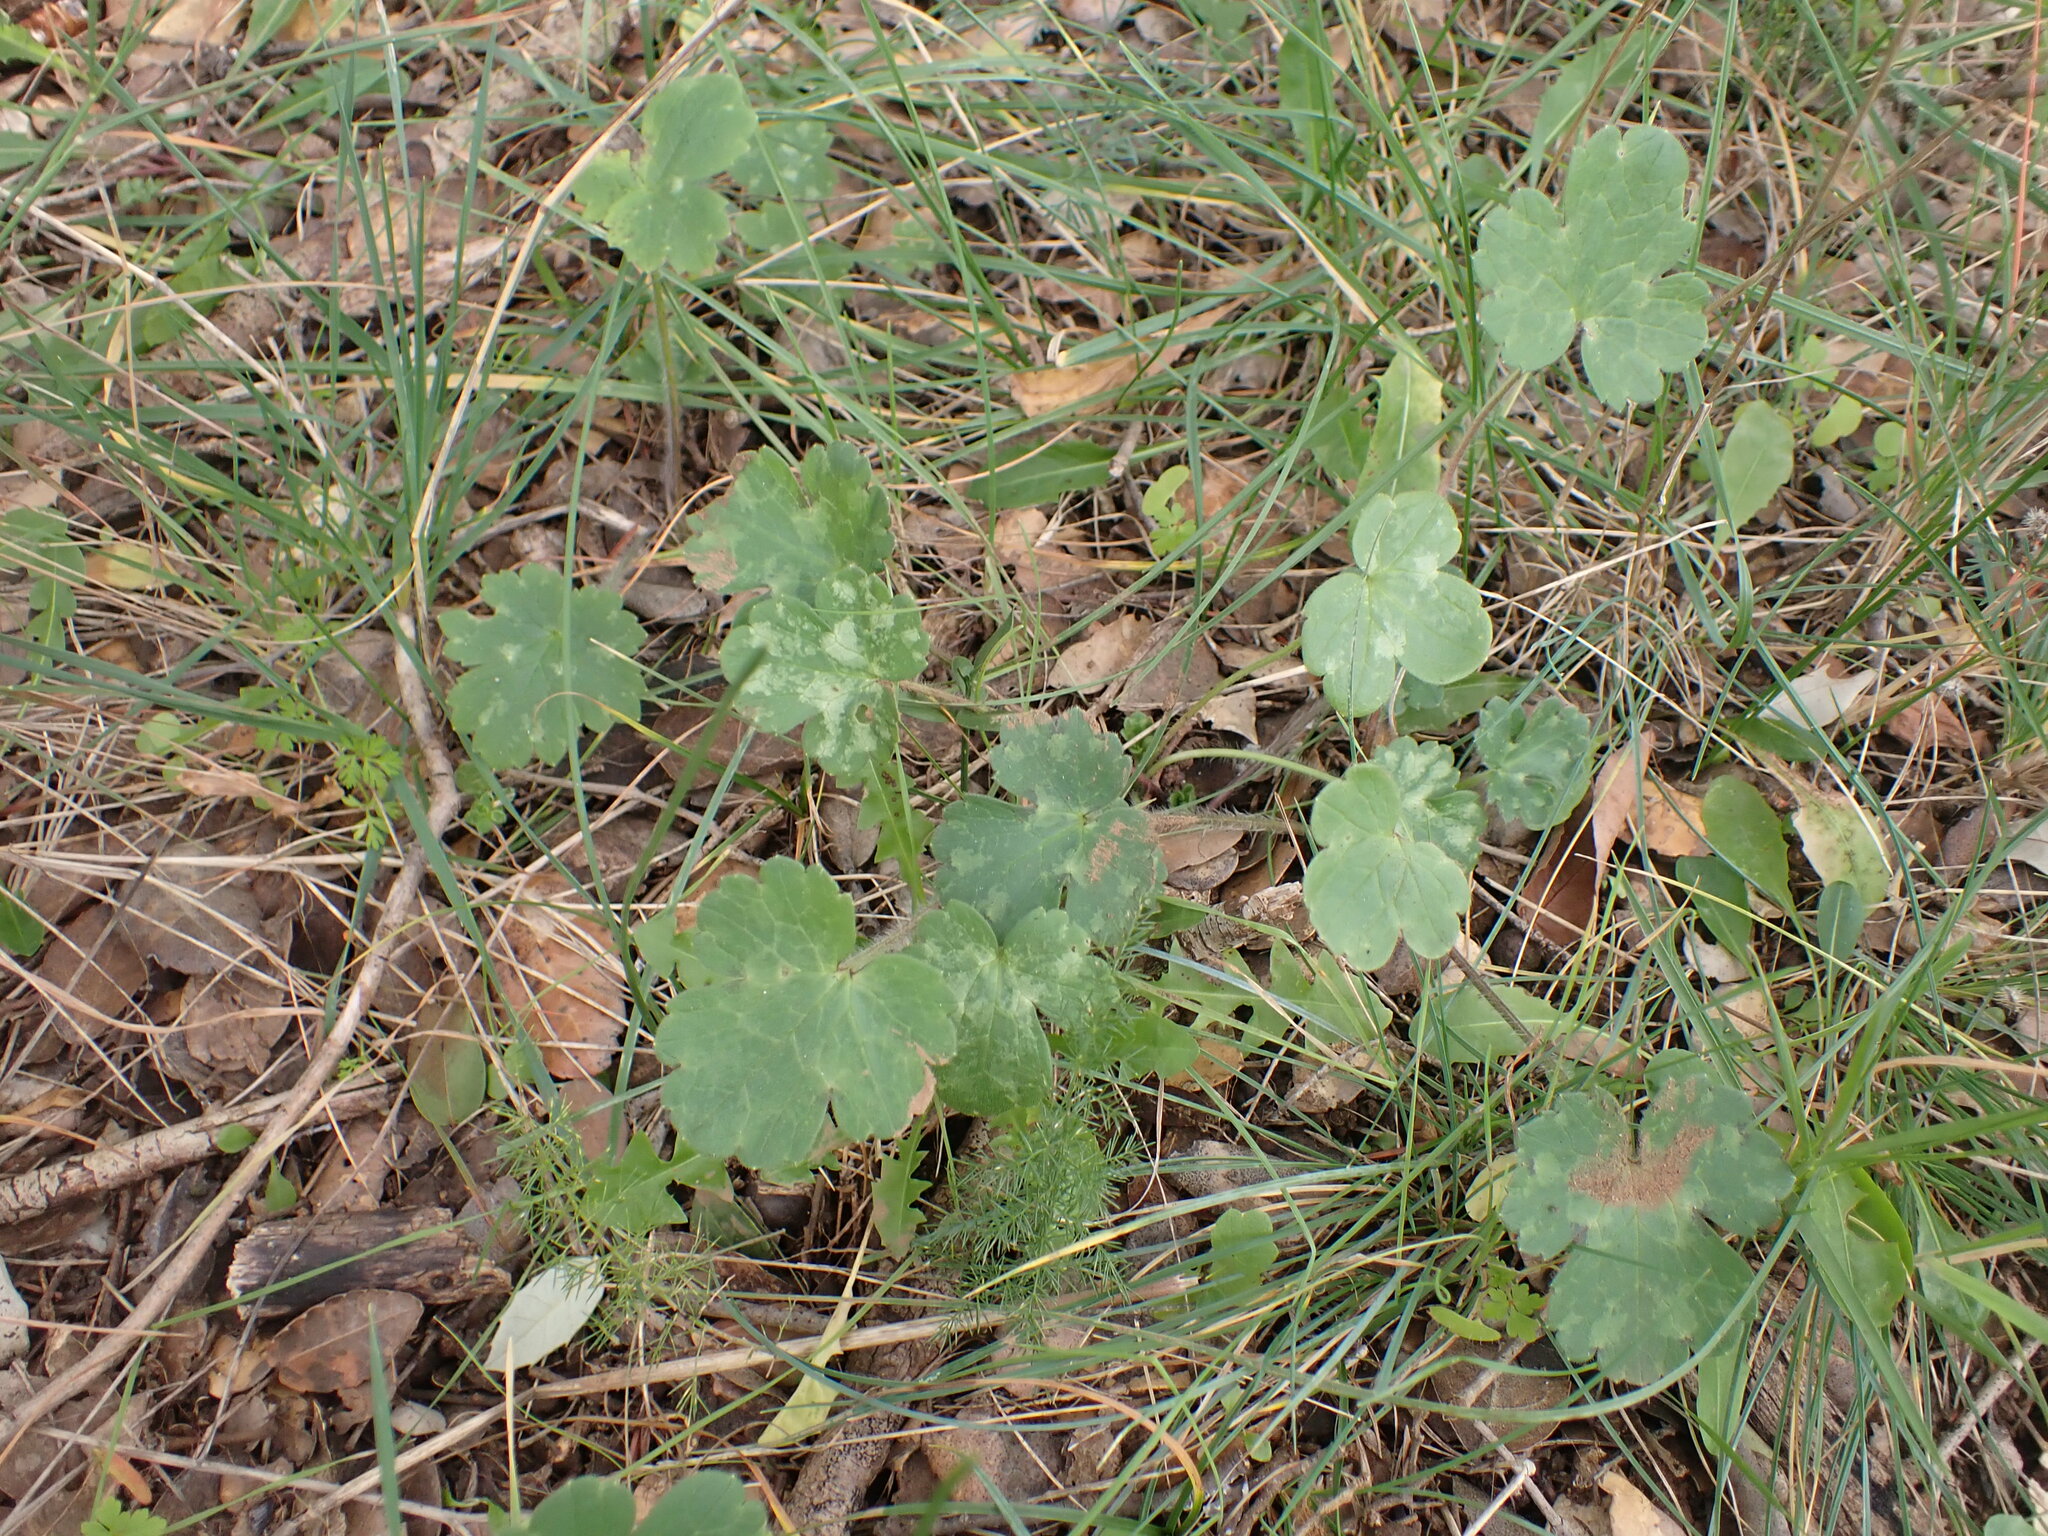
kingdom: Plantae
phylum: Tracheophyta
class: Magnoliopsida
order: Ranunculales
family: Ranunculaceae
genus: Ranunculus
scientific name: Ranunculus bulbosus
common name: Bulbous buttercup
